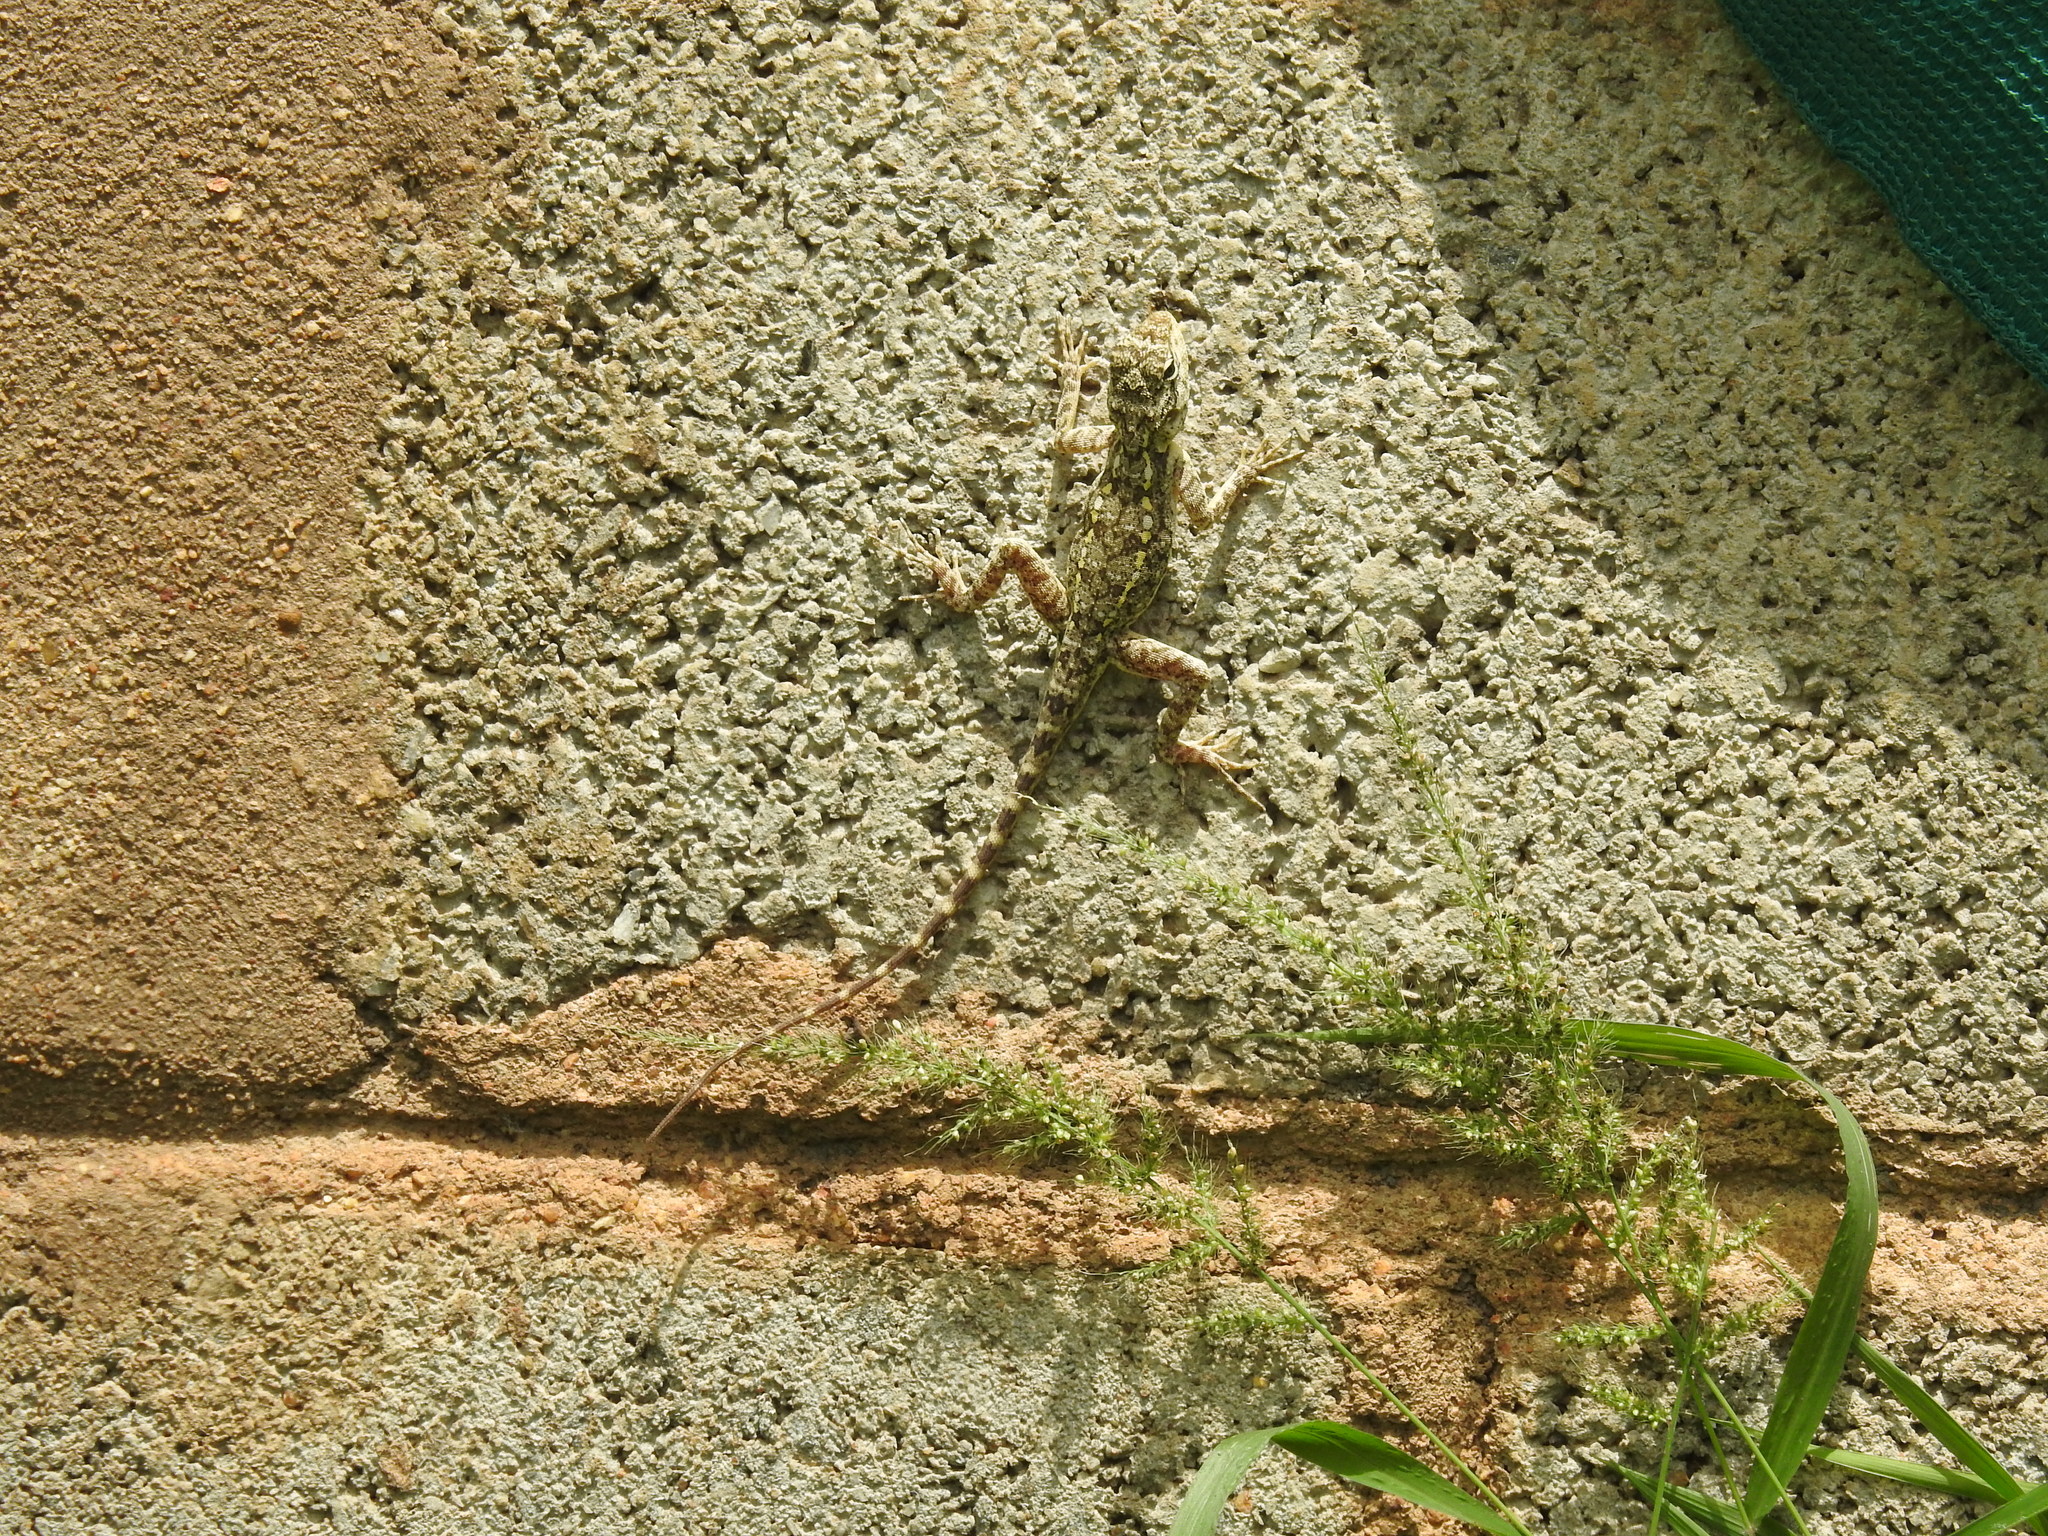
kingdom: Animalia
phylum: Chordata
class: Squamata
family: Agamidae
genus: Psammophilus
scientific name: Psammophilus dorsalis
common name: South indian rock agama
